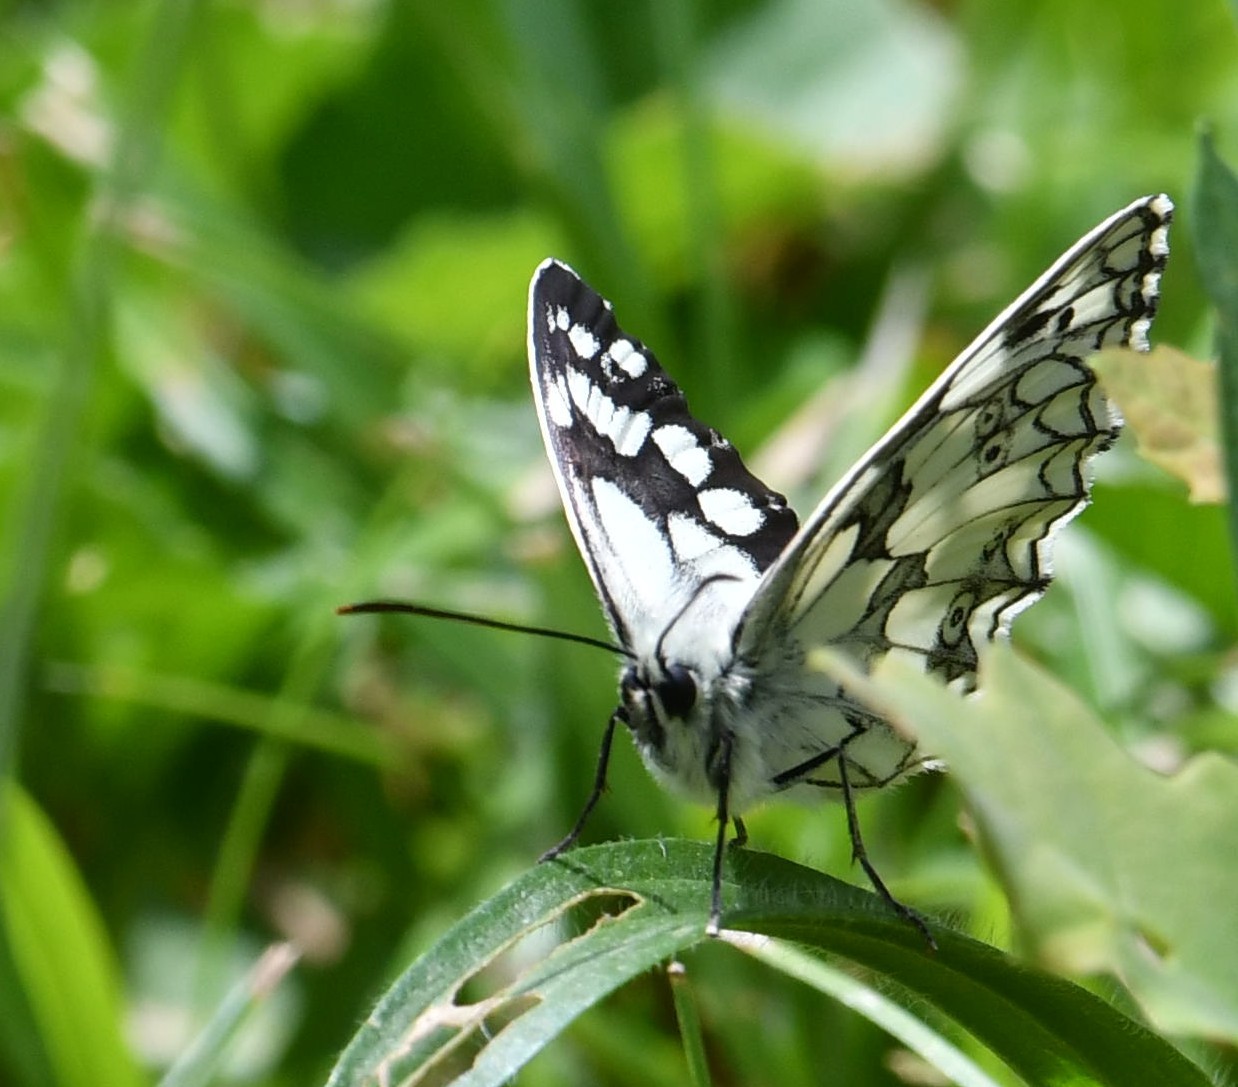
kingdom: Animalia
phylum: Arthropoda
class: Insecta
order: Lepidoptera
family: Nymphalidae
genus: Melanargia
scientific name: Melanargia galathea
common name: Marbled white
